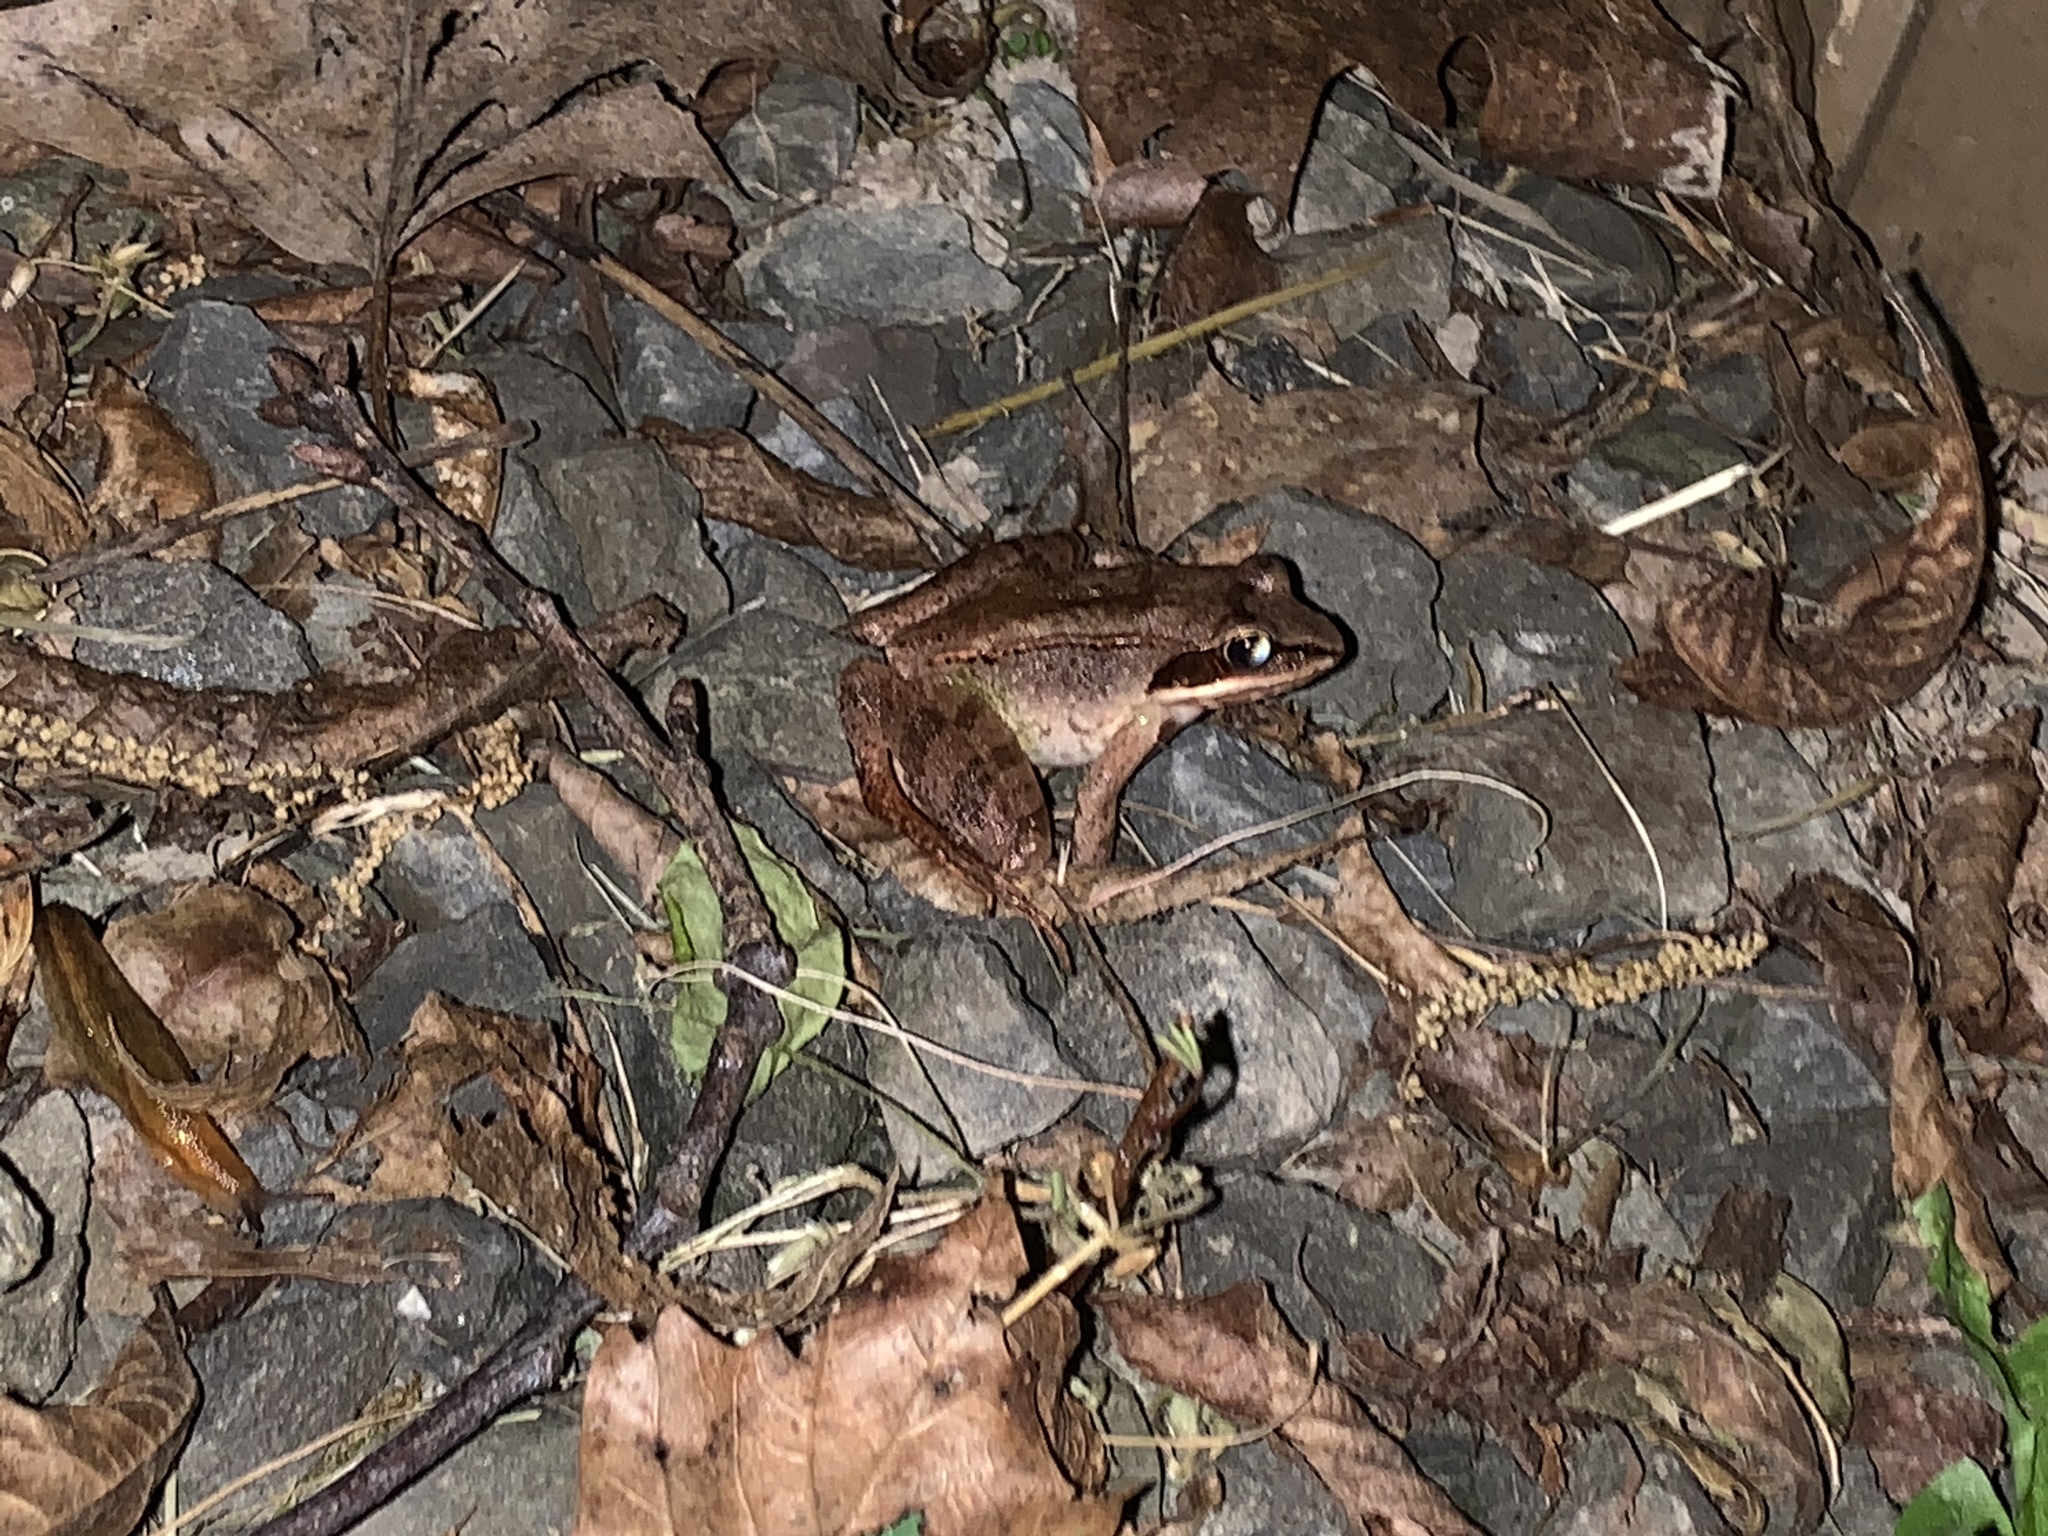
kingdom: Animalia
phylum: Chordata
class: Amphibia
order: Anura
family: Ranidae
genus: Lithobates
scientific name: Lithobates sylvaticus
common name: Wood frog
